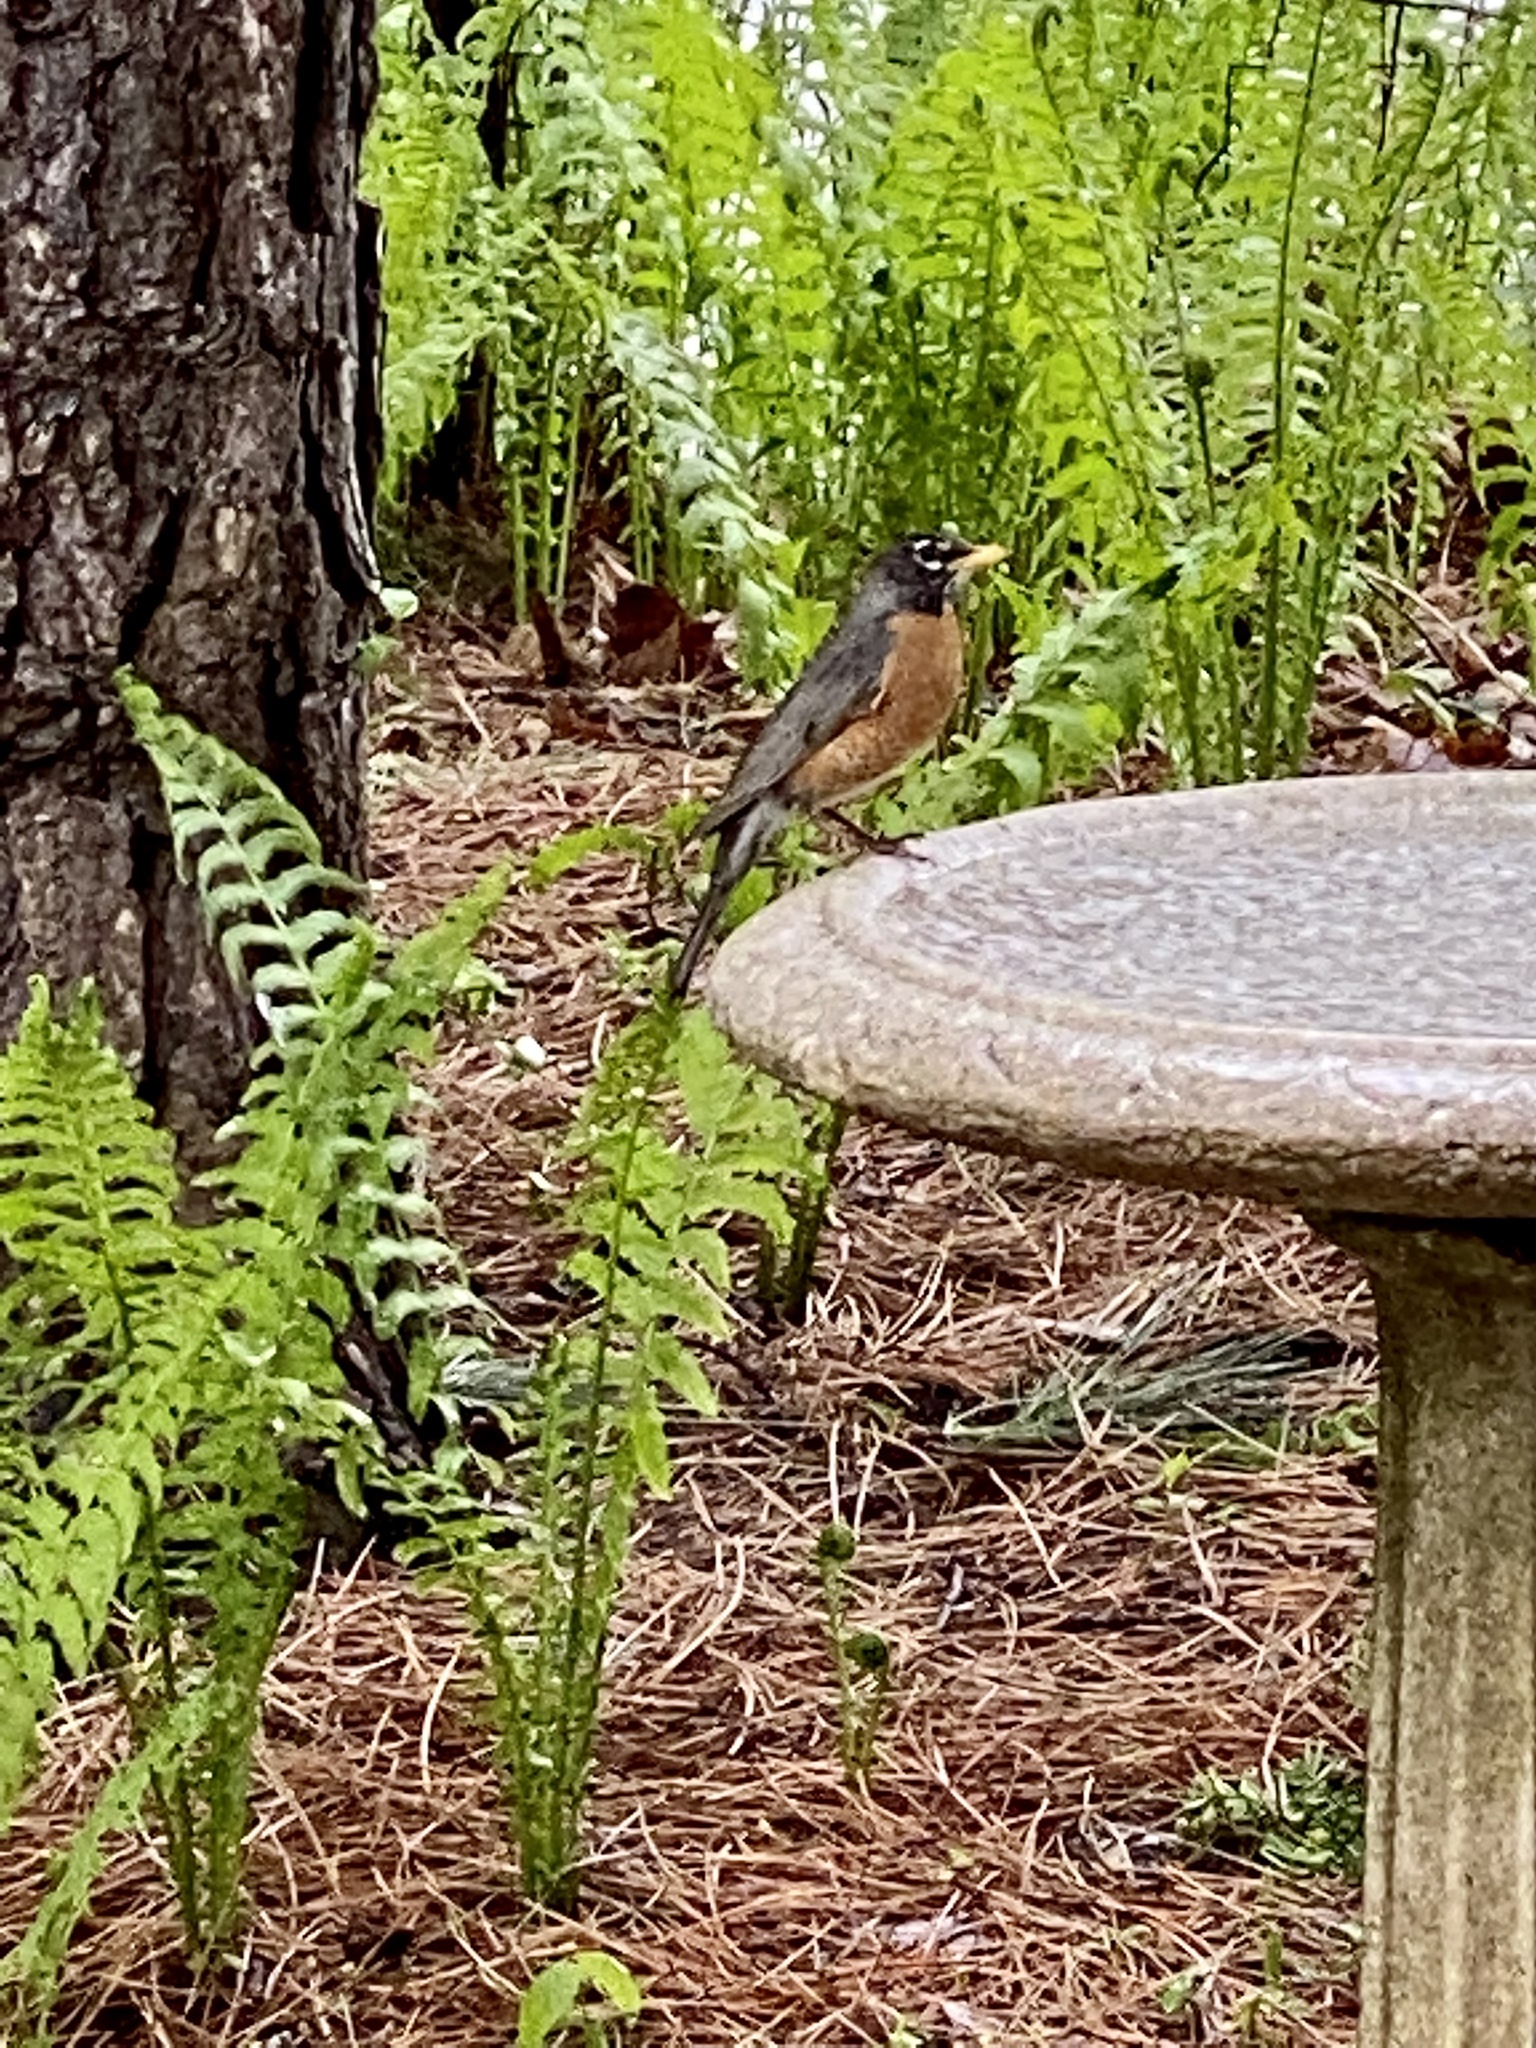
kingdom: Animalia
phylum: Chordata
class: Aves
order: Passeriformes
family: Turdidae
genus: Turdus
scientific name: Turdus migratorius
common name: American robin
